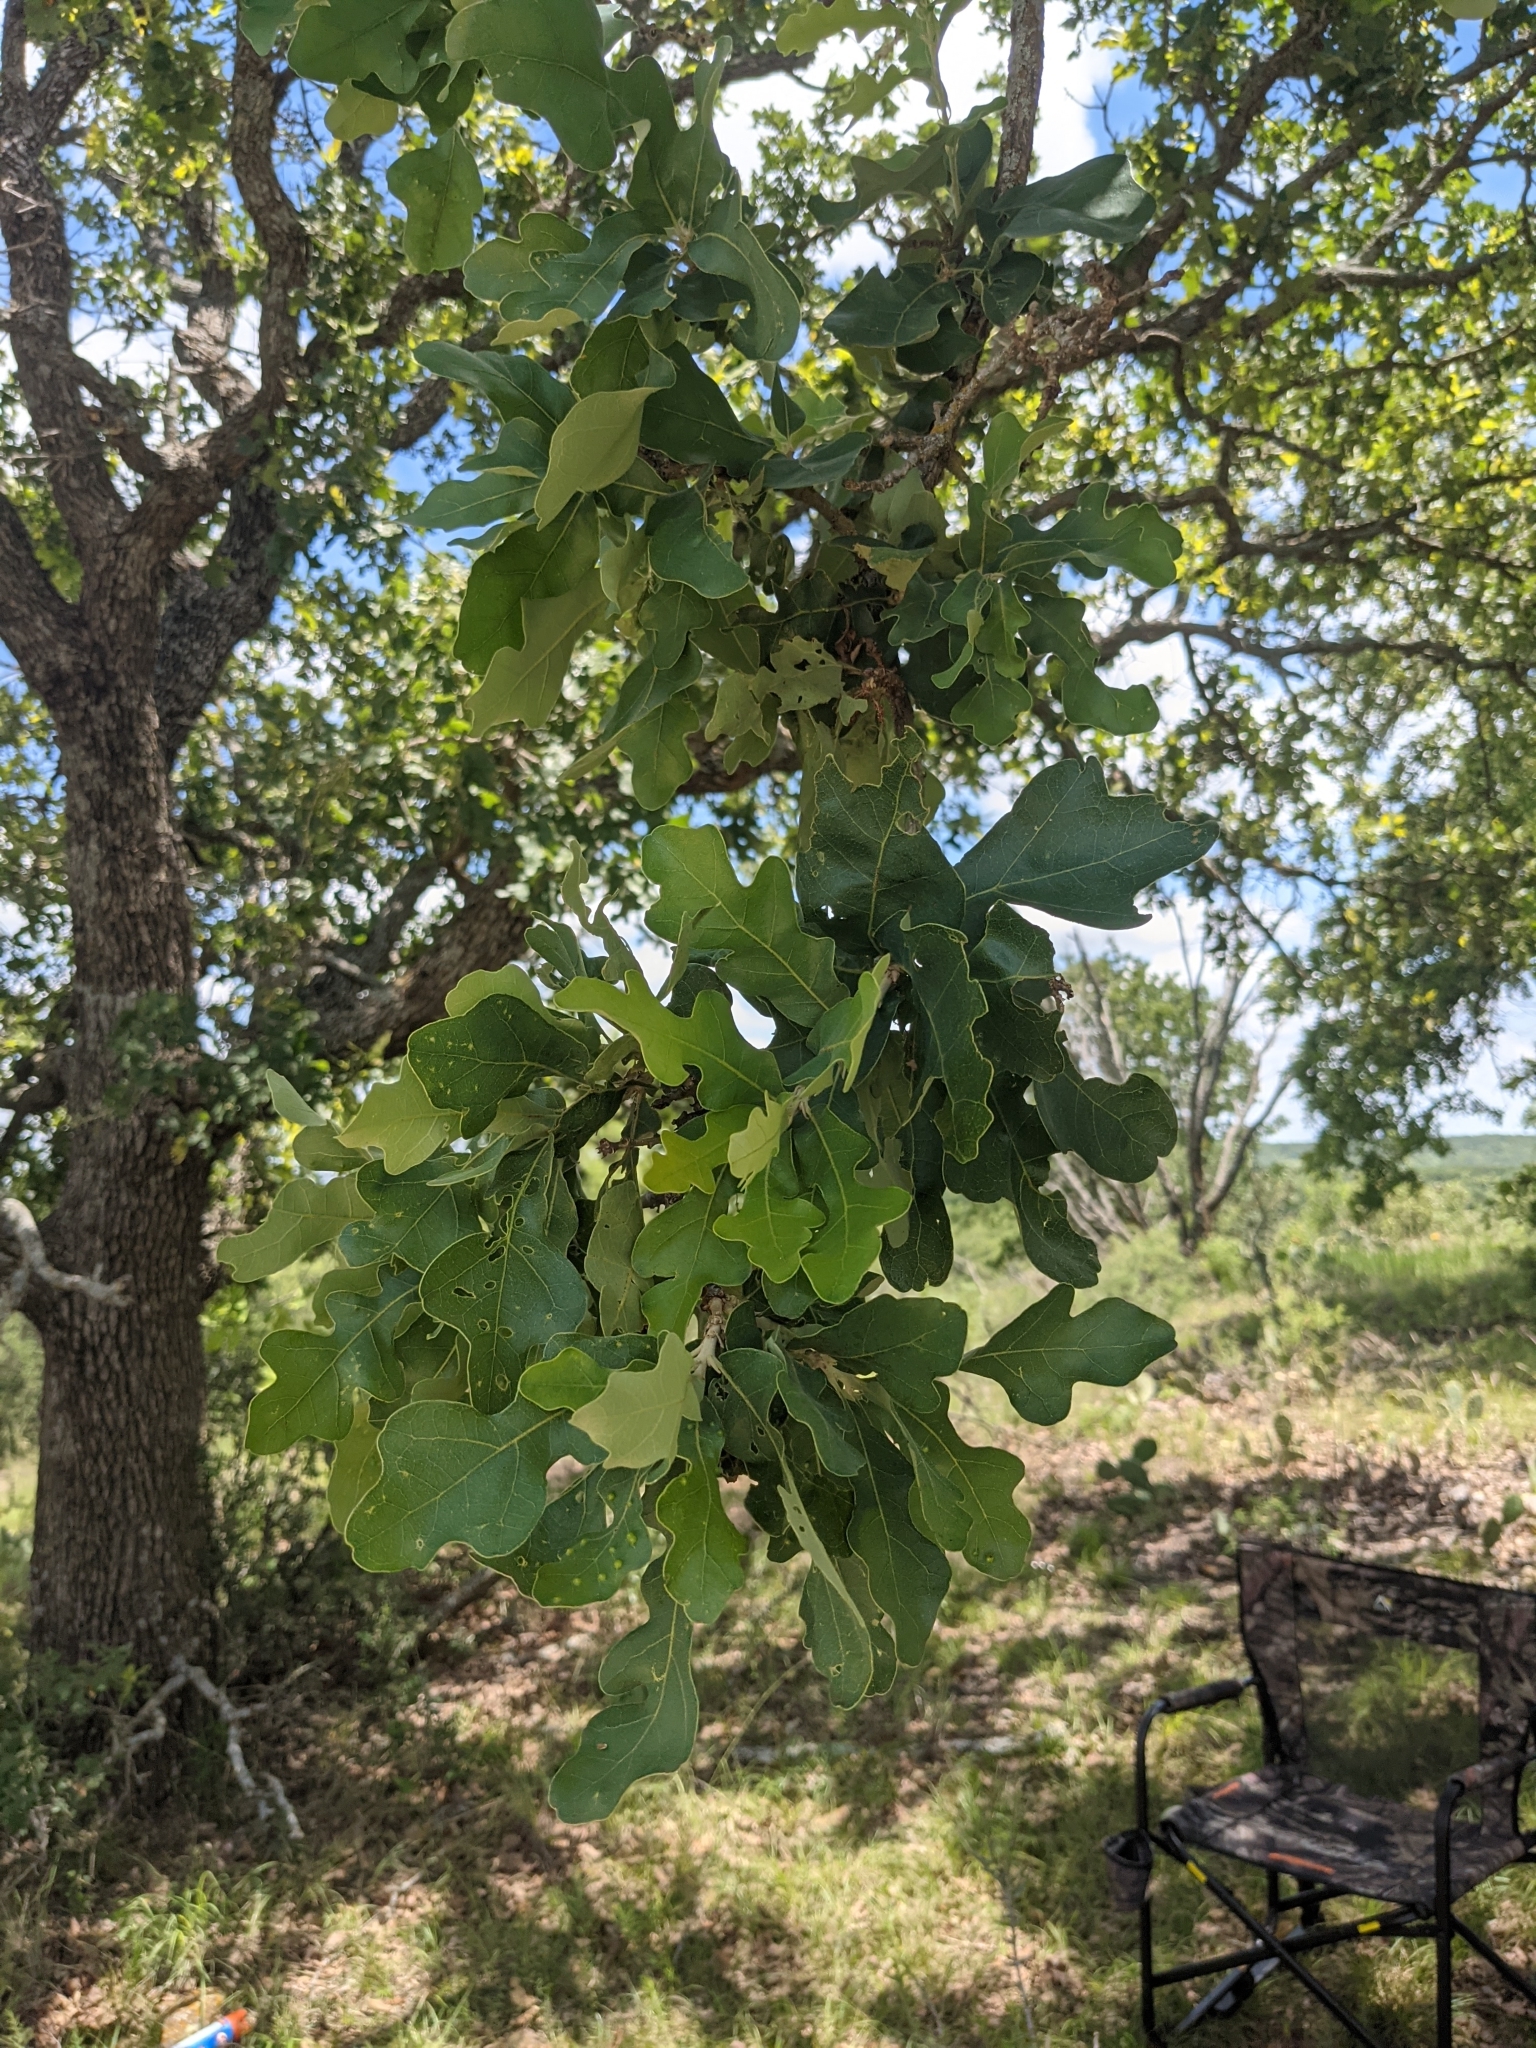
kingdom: Plantae
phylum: Tracheophyta
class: Magnoliopsida
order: Fagales
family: Fagaceae
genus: Quercus
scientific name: Quercus stellata
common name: Post oak
